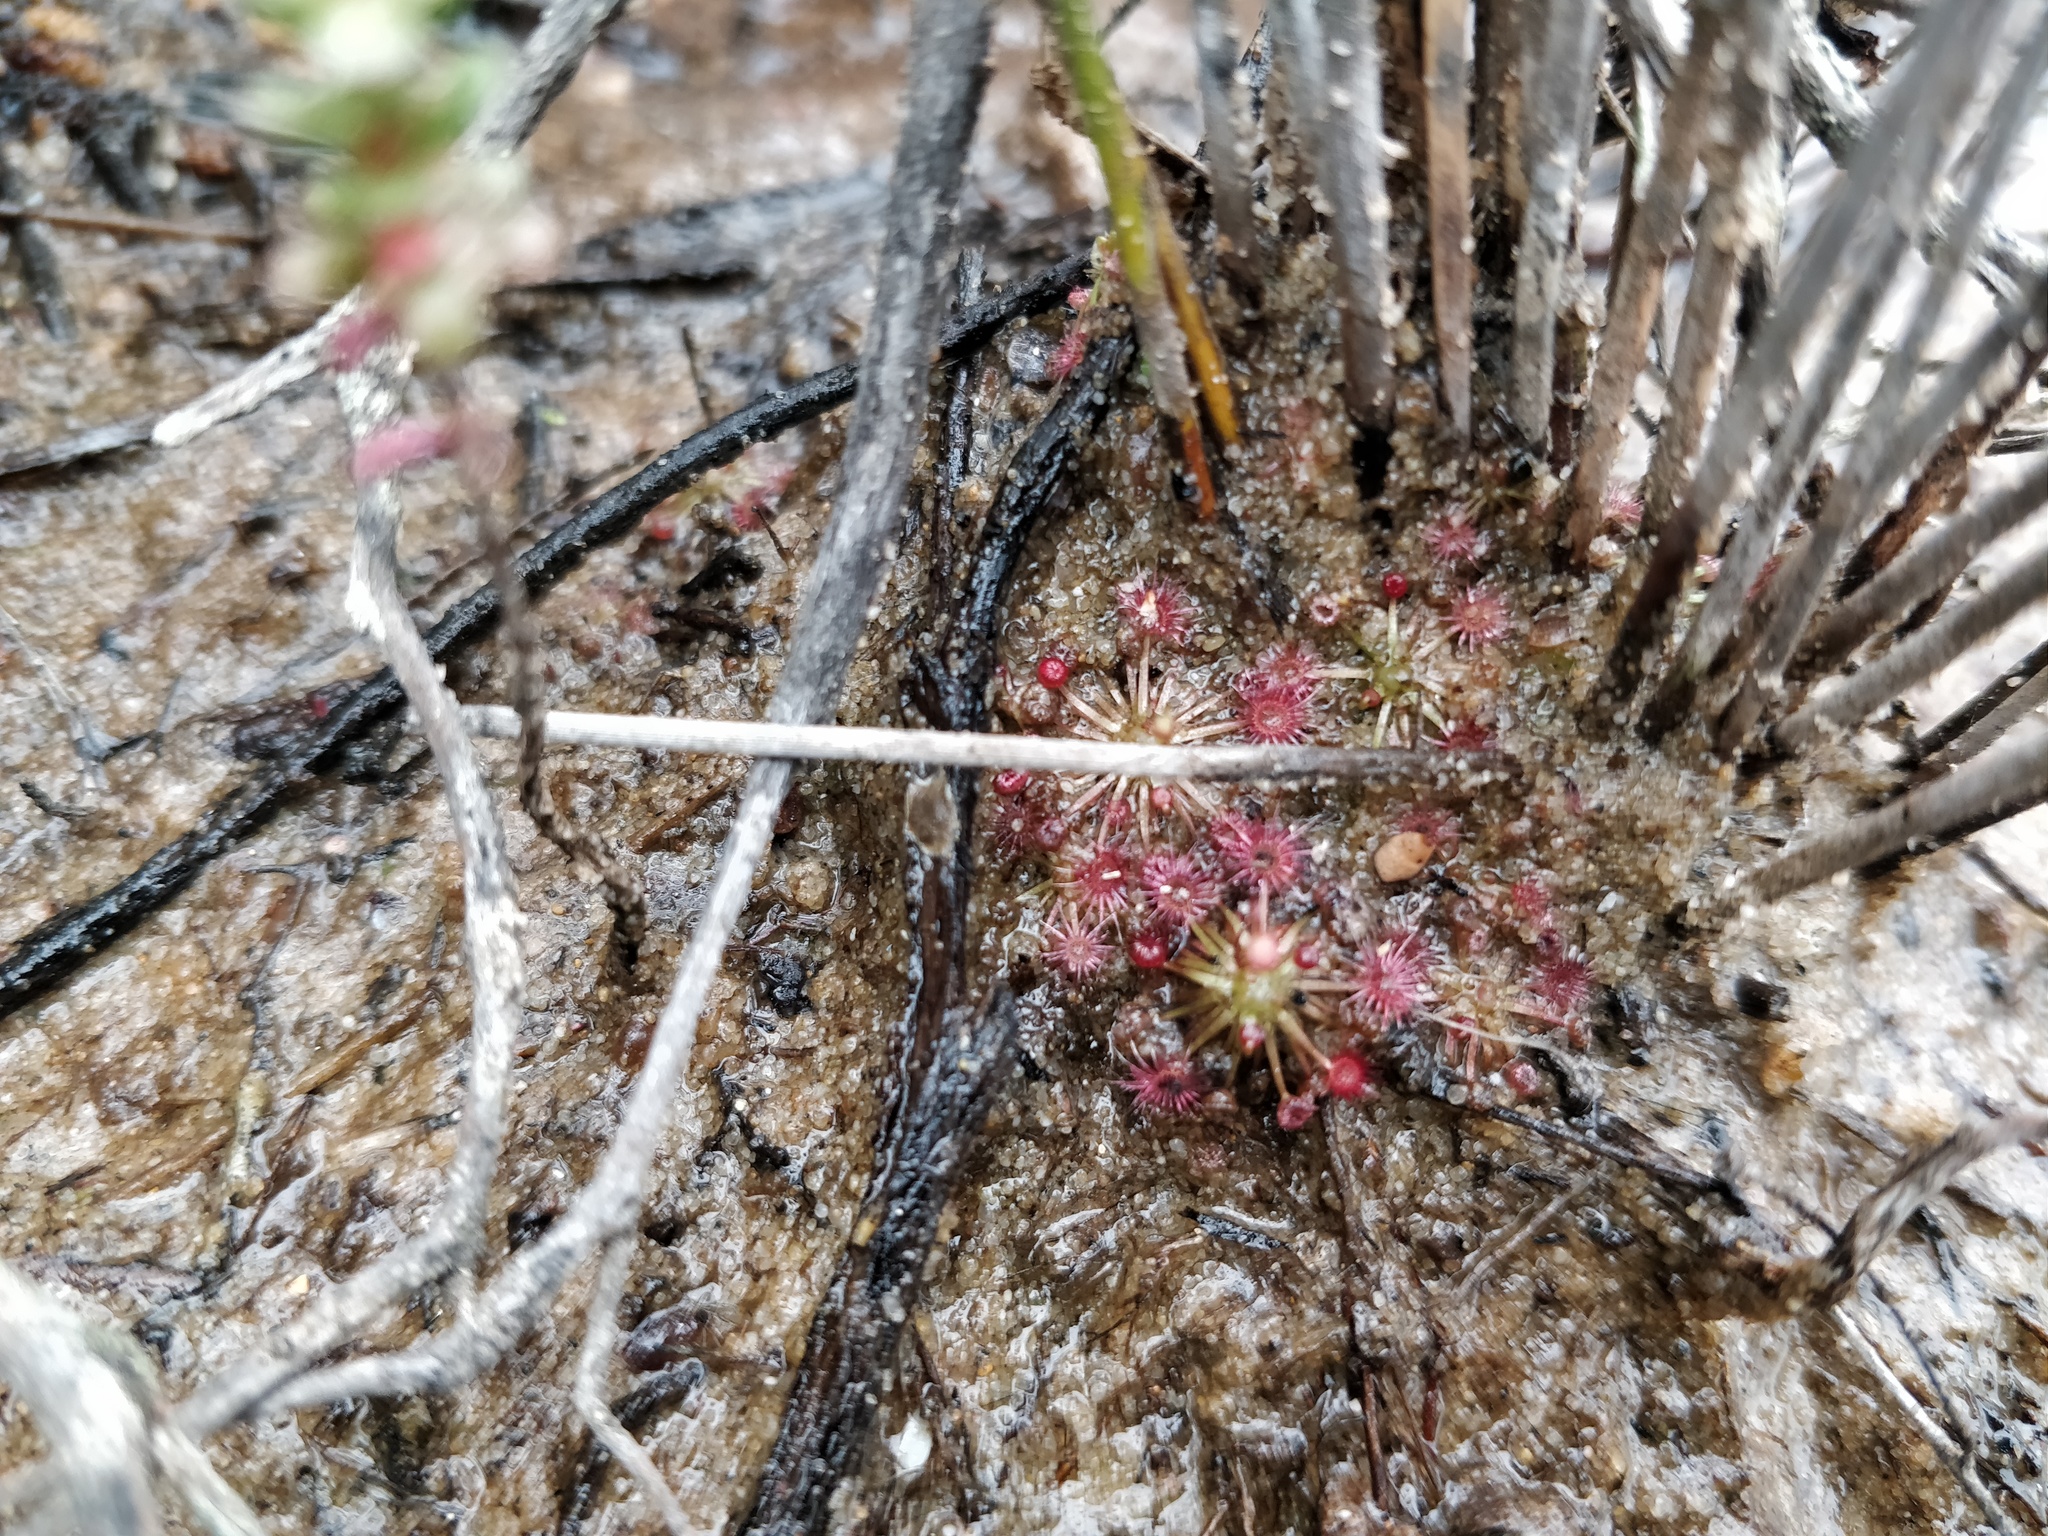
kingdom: Plantae
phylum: Tracheophyta
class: Magnoliopsida
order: Caryophyllales
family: Droseraceae
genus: Drosera
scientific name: Drosera pygmaea
